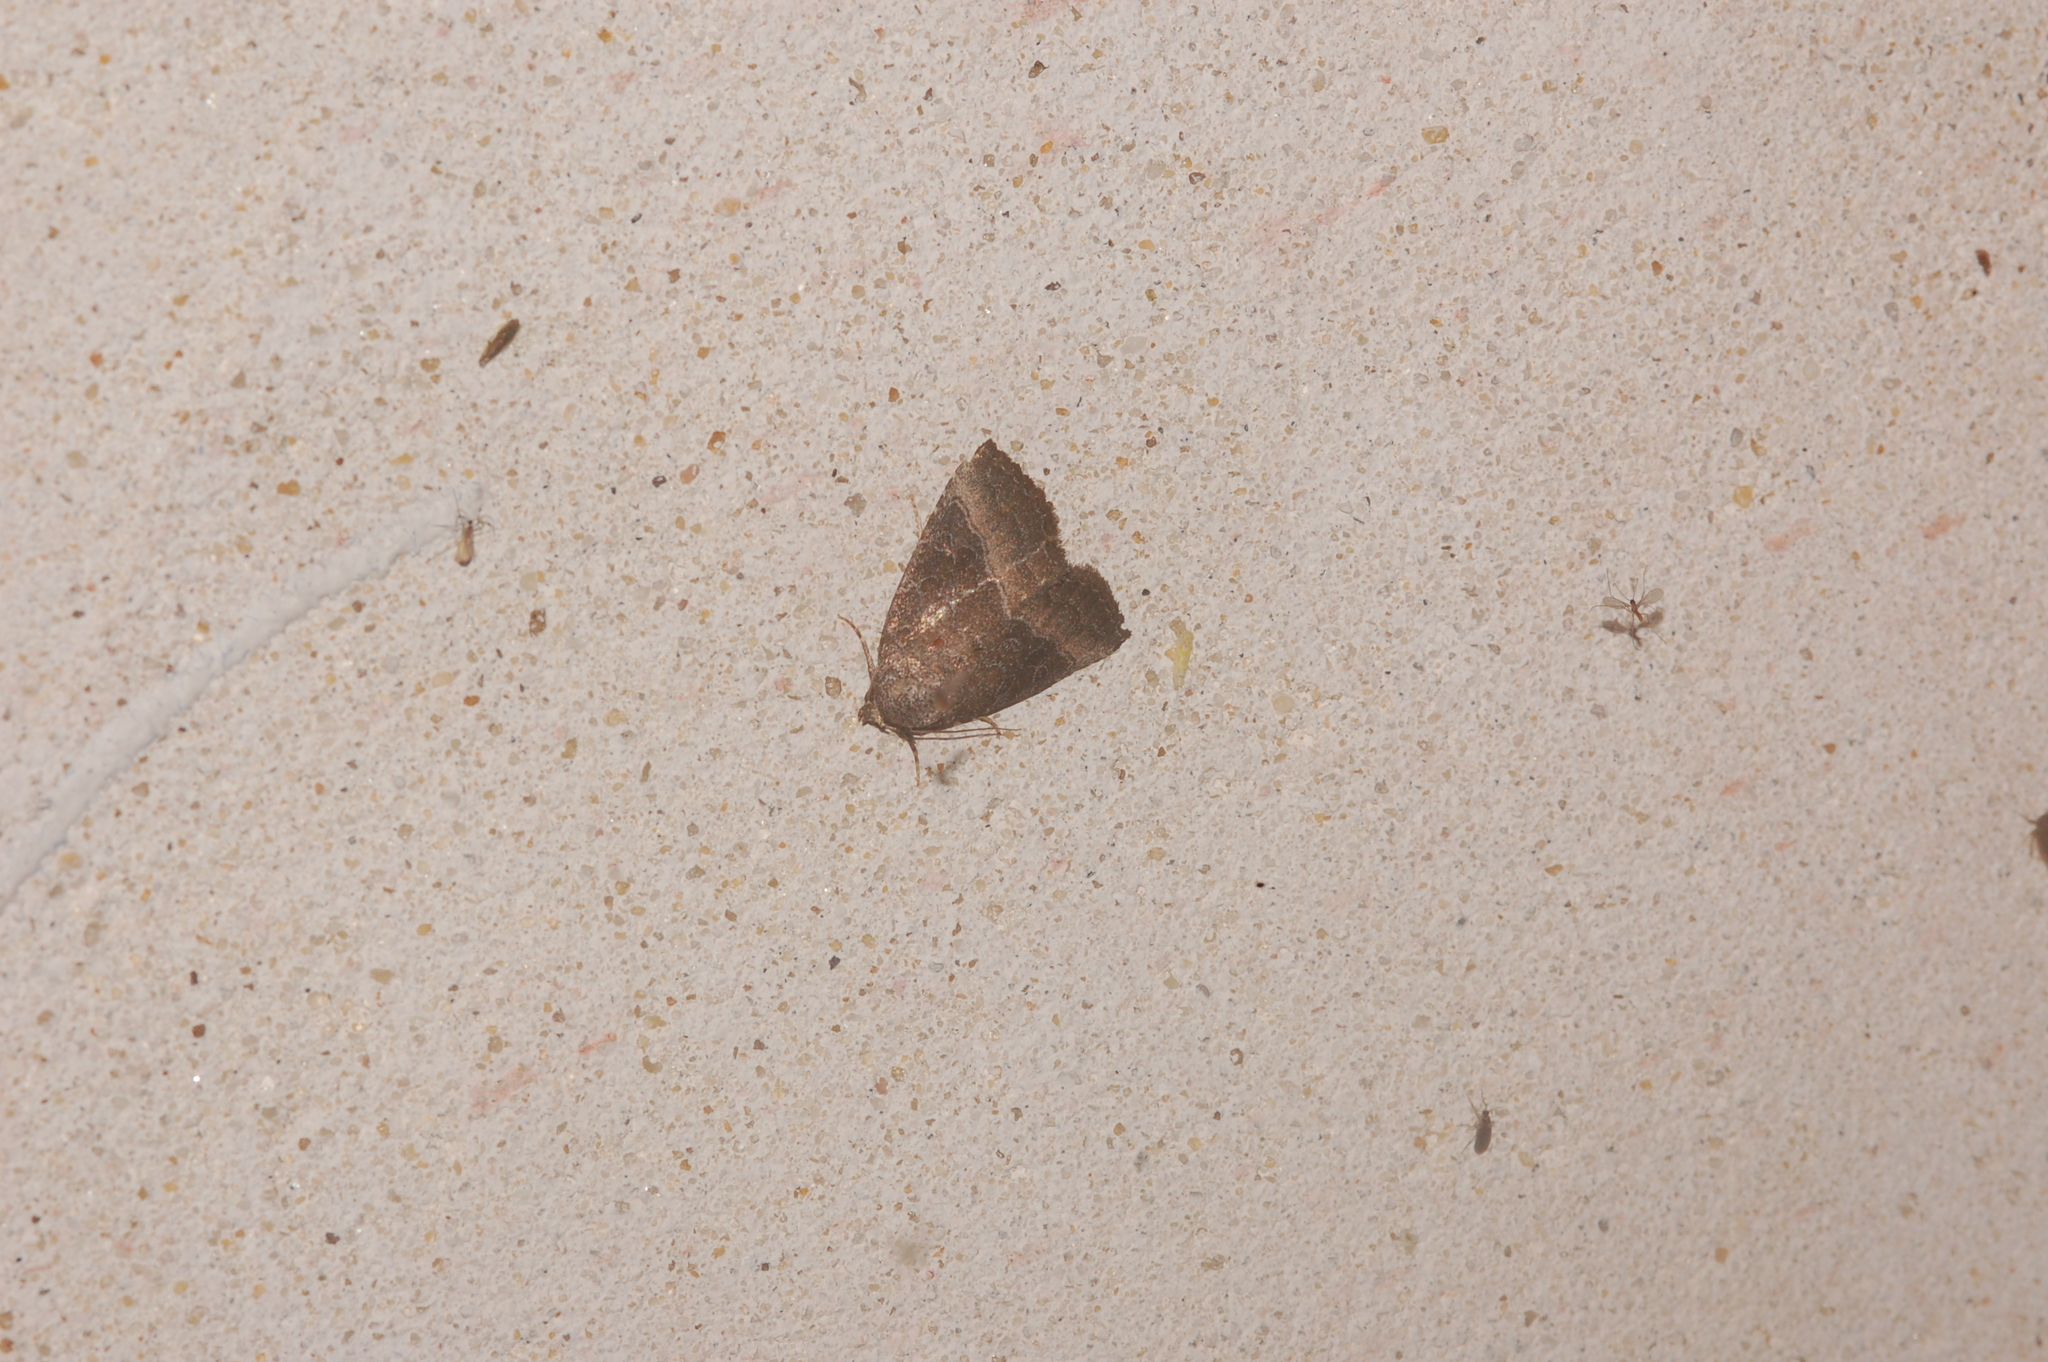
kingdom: Animalia
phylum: Arthropoda
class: Insecta
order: Lepidoptera
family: Noctuidae
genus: Ogdoconta
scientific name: Ogdoconta cinereola
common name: Common pinkband
